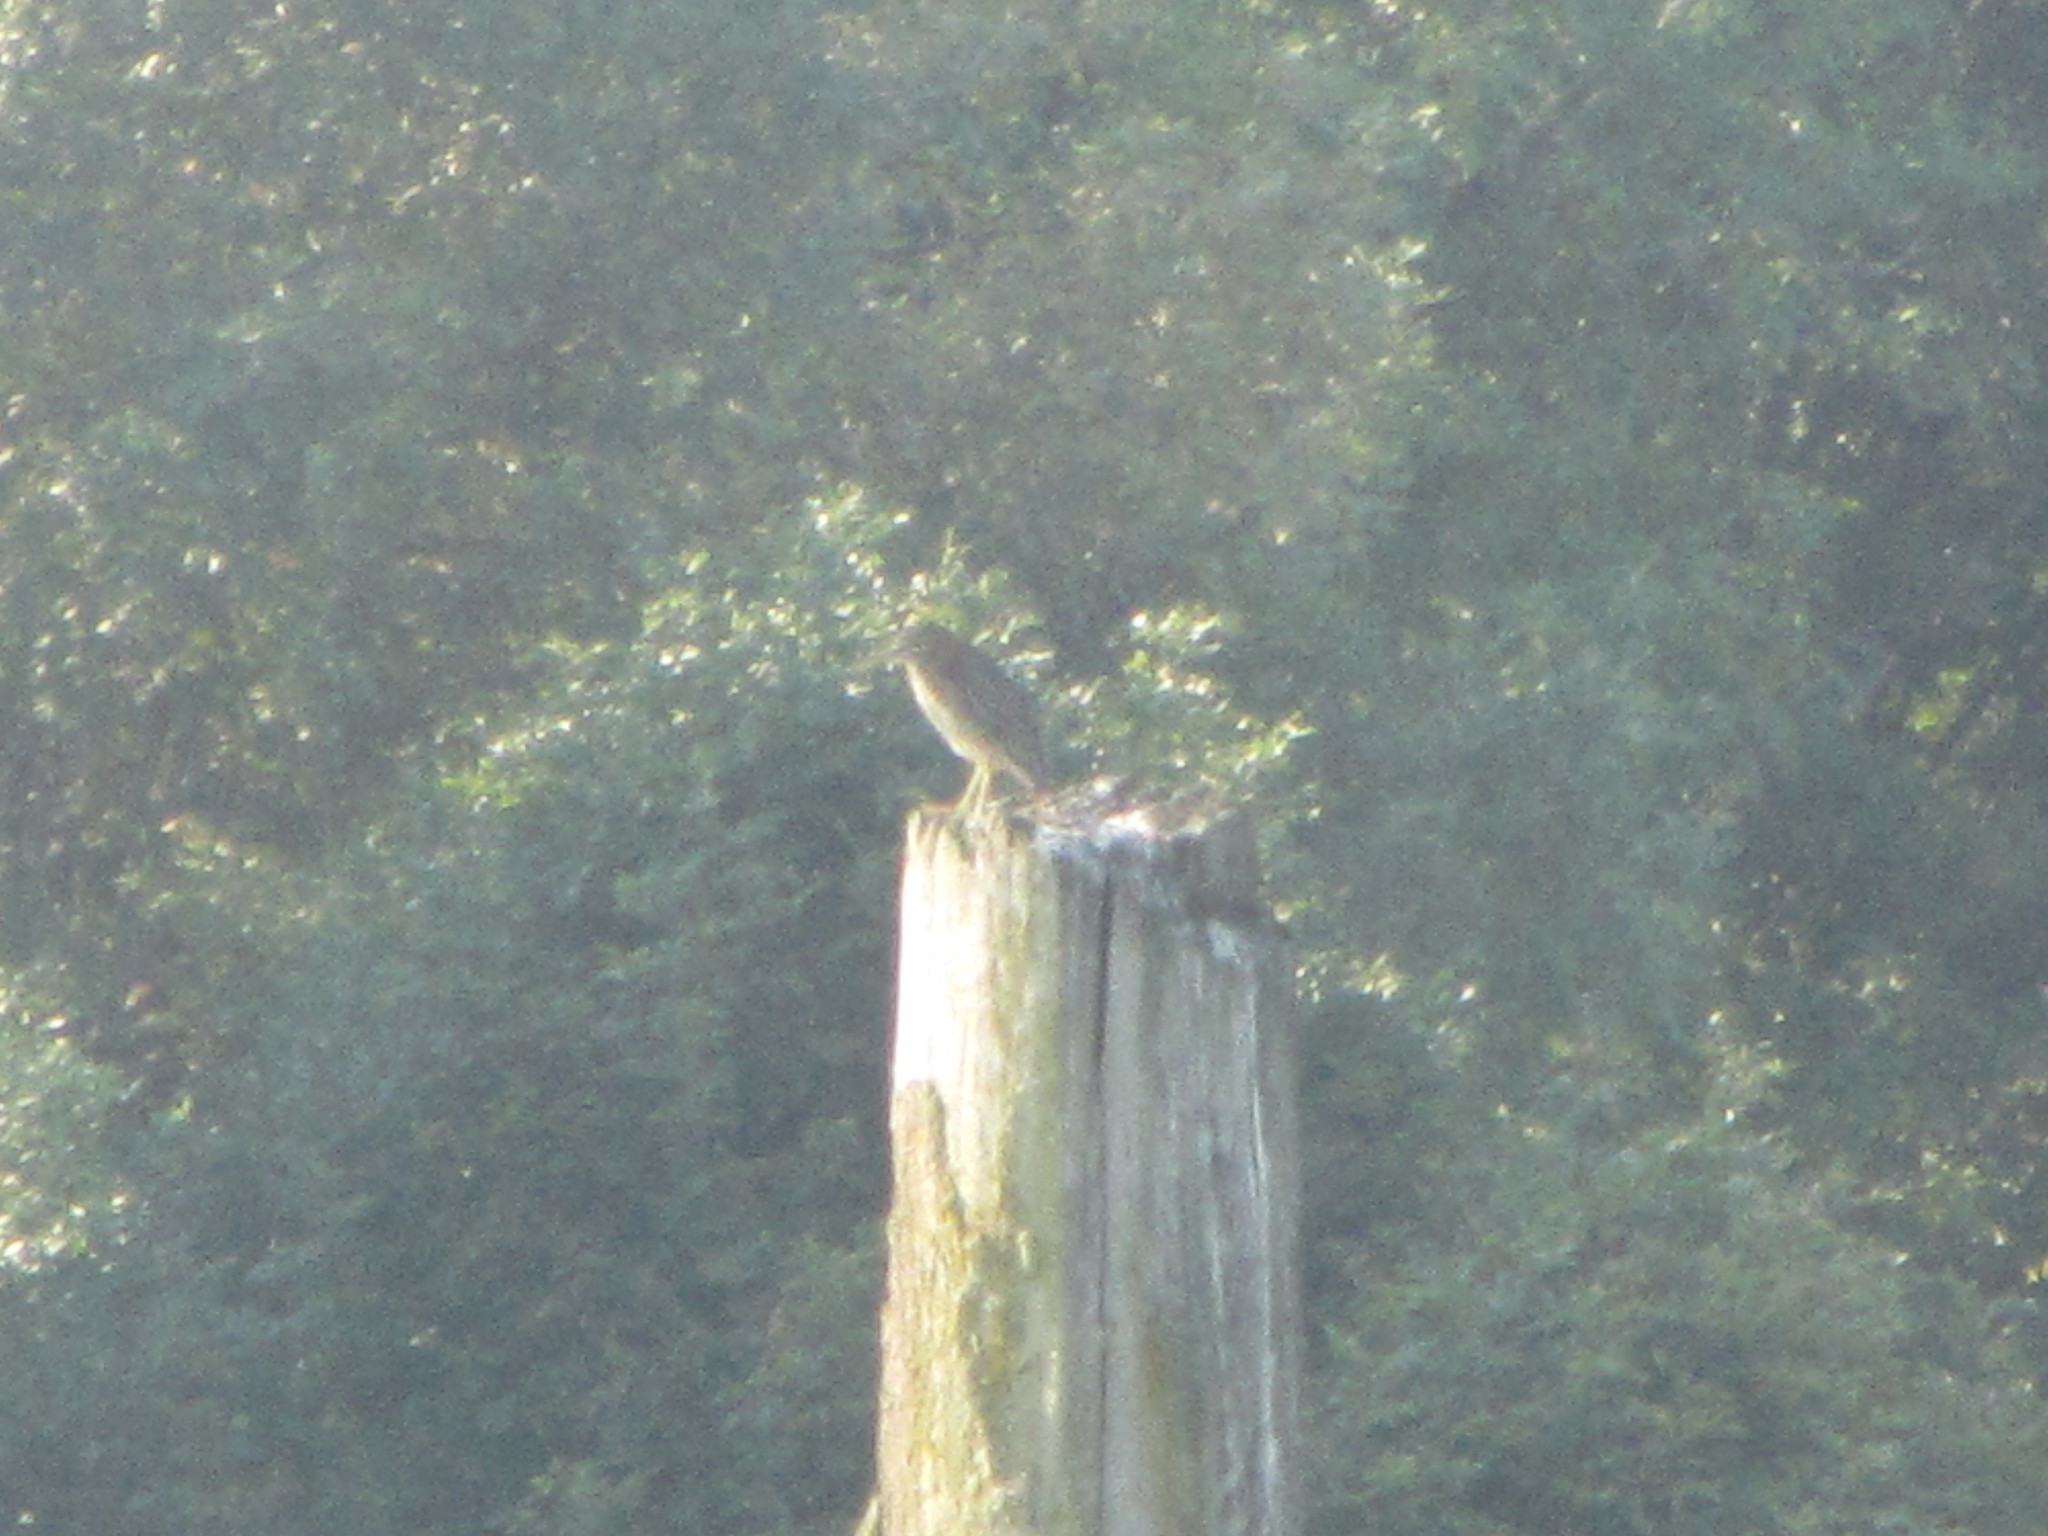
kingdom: Animalia
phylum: Chordata
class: Aves
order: Pelecaniformes
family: Ardeidae
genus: Butorides
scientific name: Butorides virescens
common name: Green heron
